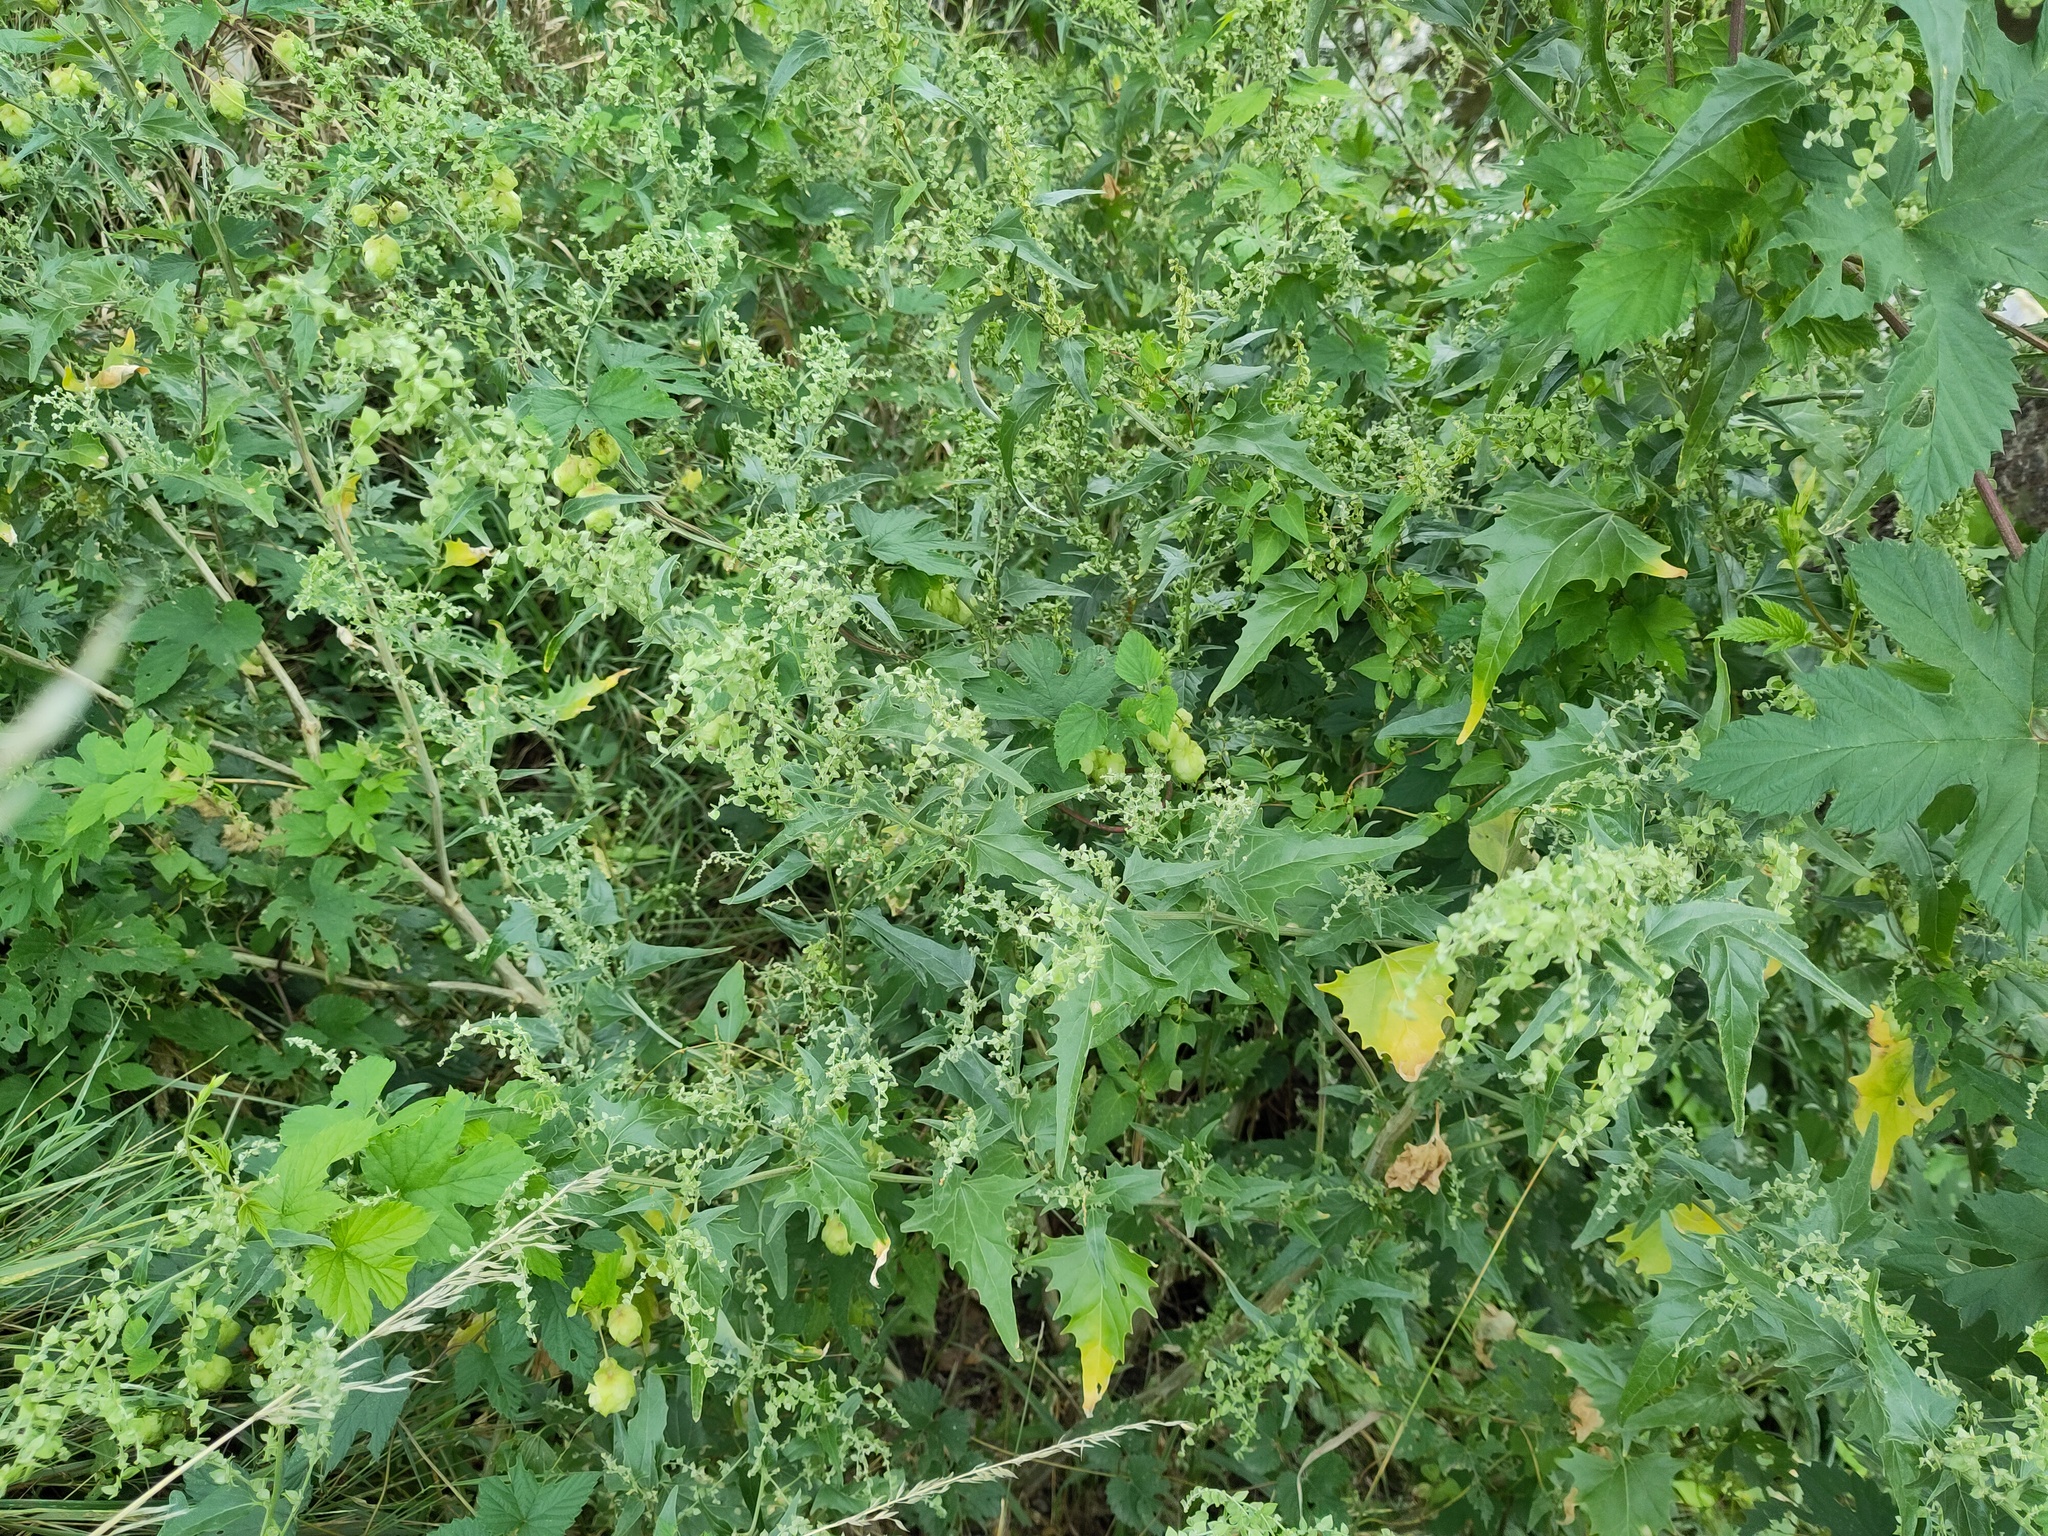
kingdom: Plantae
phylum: Tracheophyta
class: Magnoliopsida
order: Caryophyllales
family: Amaranthaceae
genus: Atriplex
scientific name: Atriplex sagittata
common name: Purple orache
